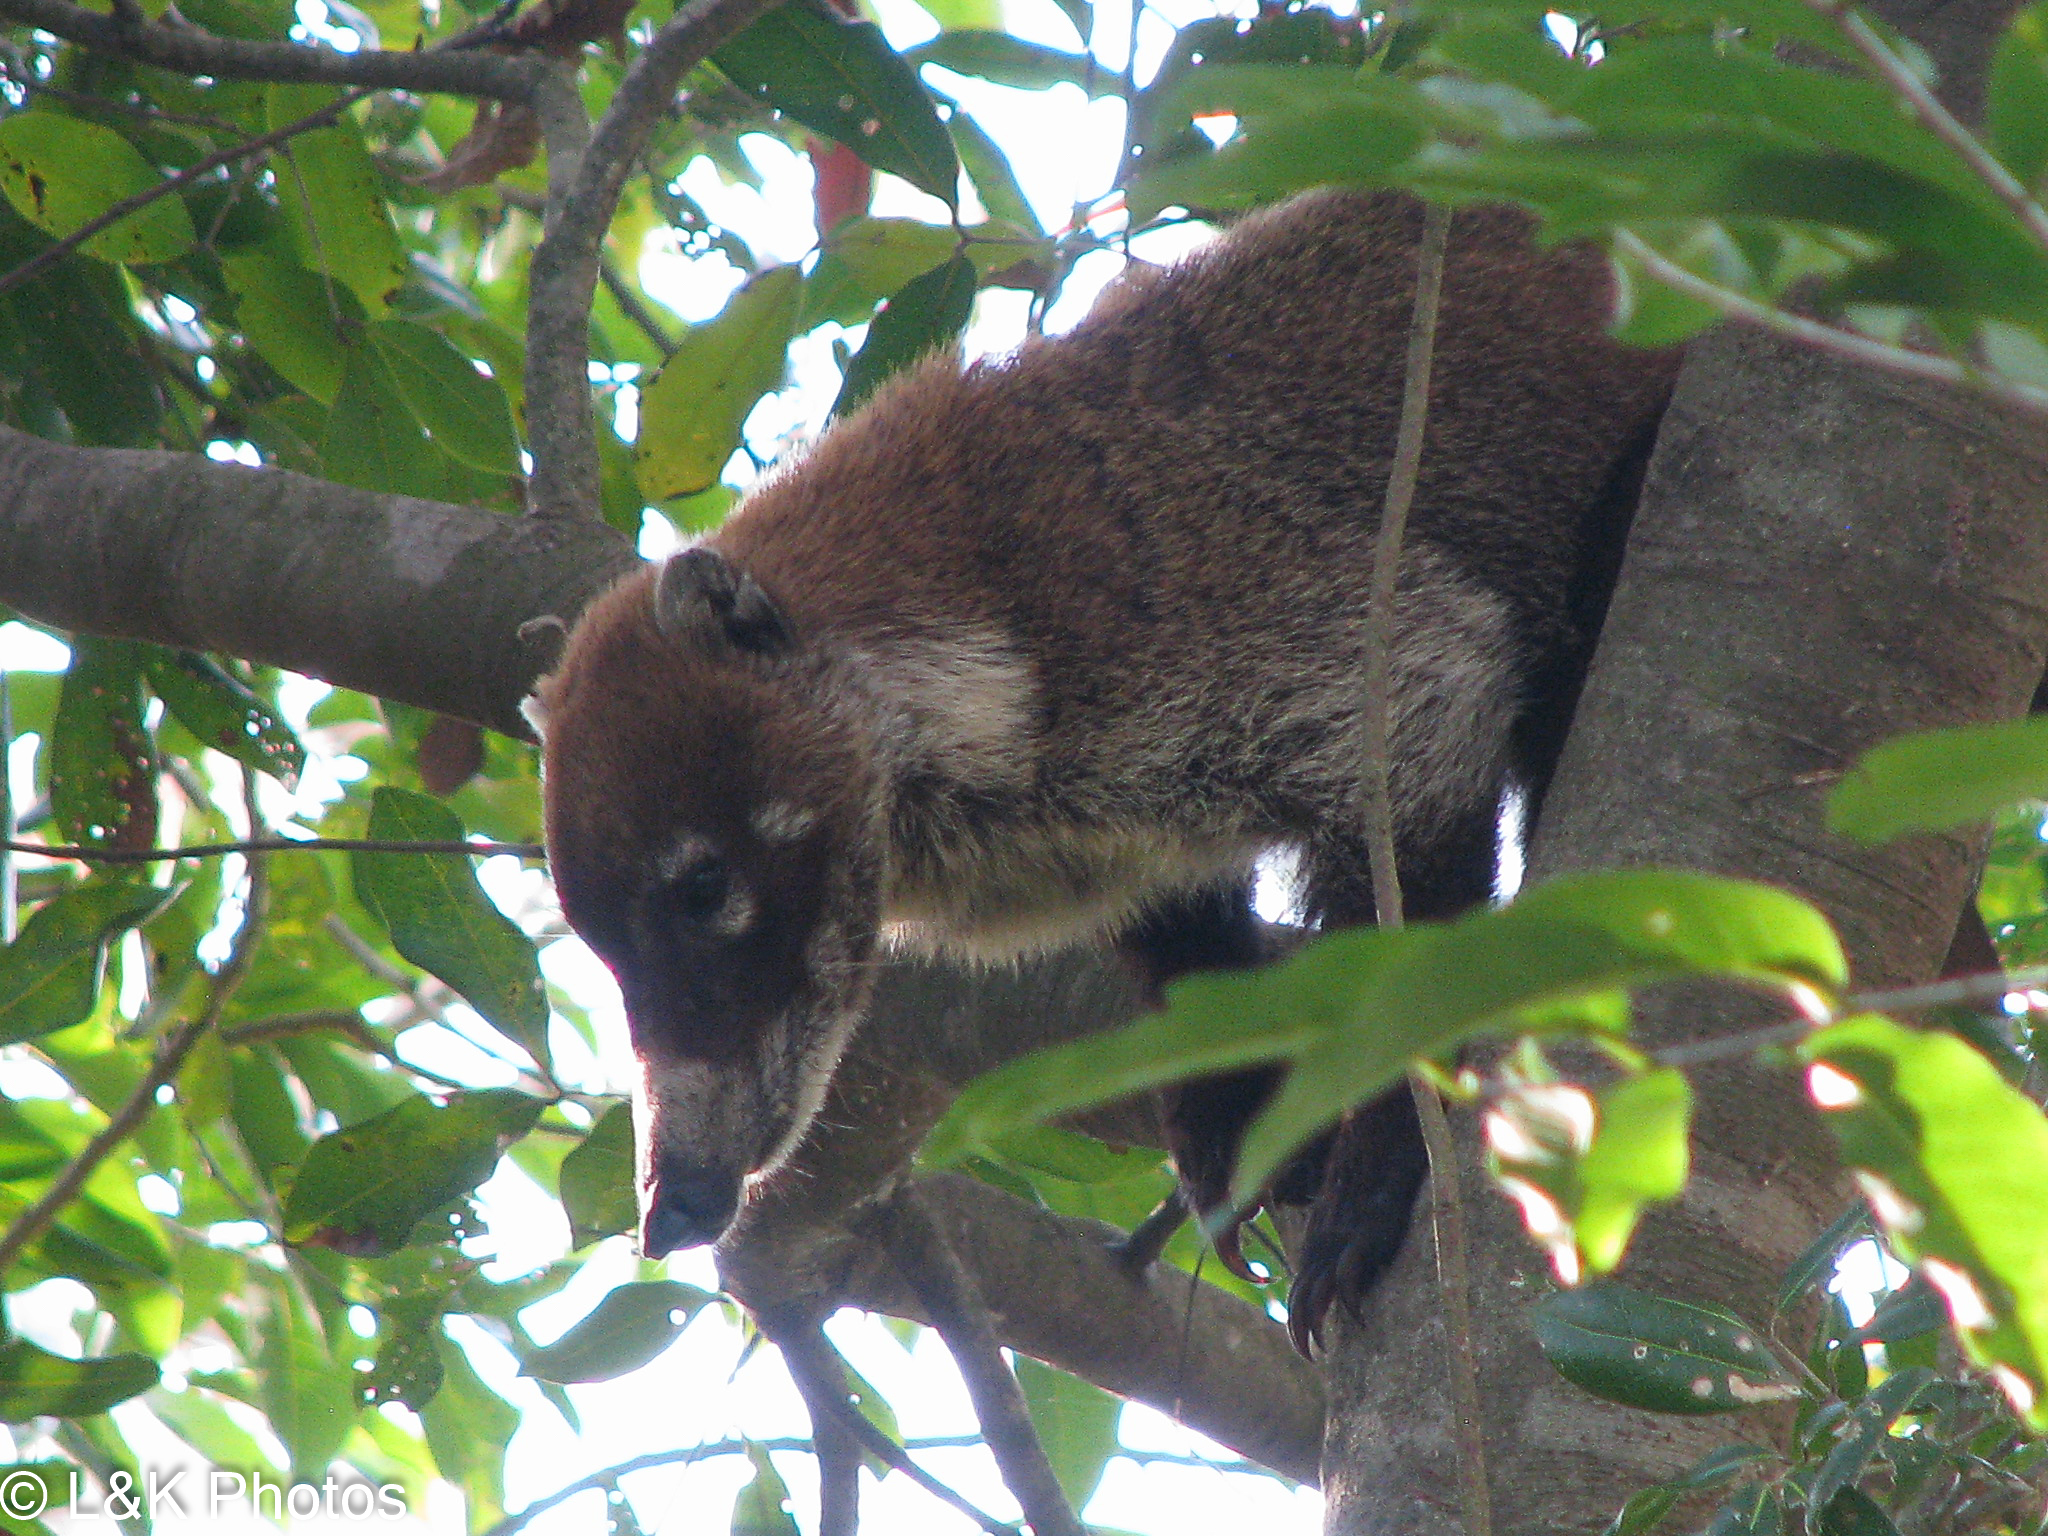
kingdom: Animalia
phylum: Chordata
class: Mammalia
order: Carnivora
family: Procyonidae
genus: Nasua
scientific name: Nasua narica
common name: White-nosed coati
